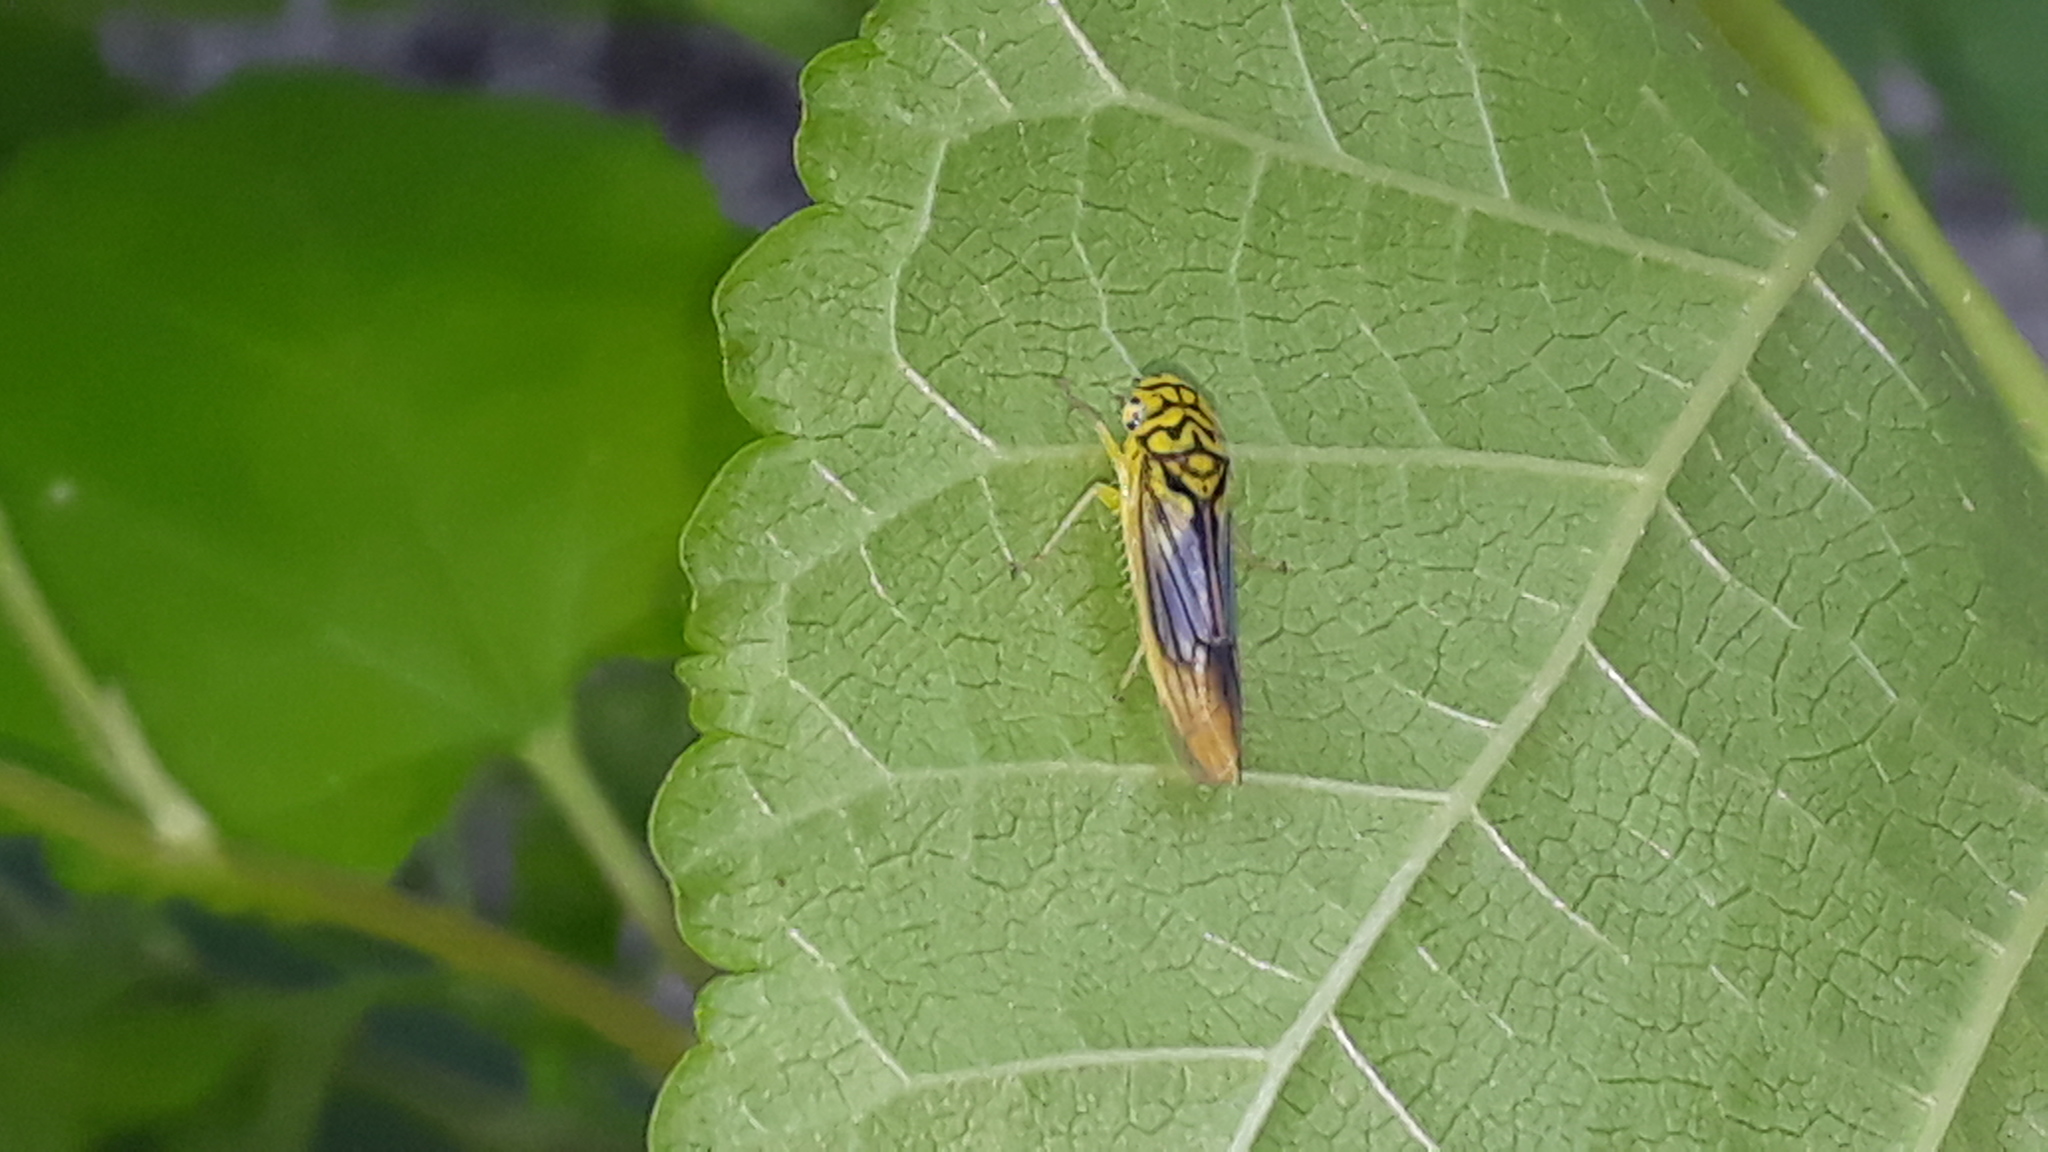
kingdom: Animalia
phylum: Arthropoda
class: Insecta
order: Hemiptera
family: Cicadellidae
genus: Dilobopterus
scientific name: Dilobopterus costalimai
